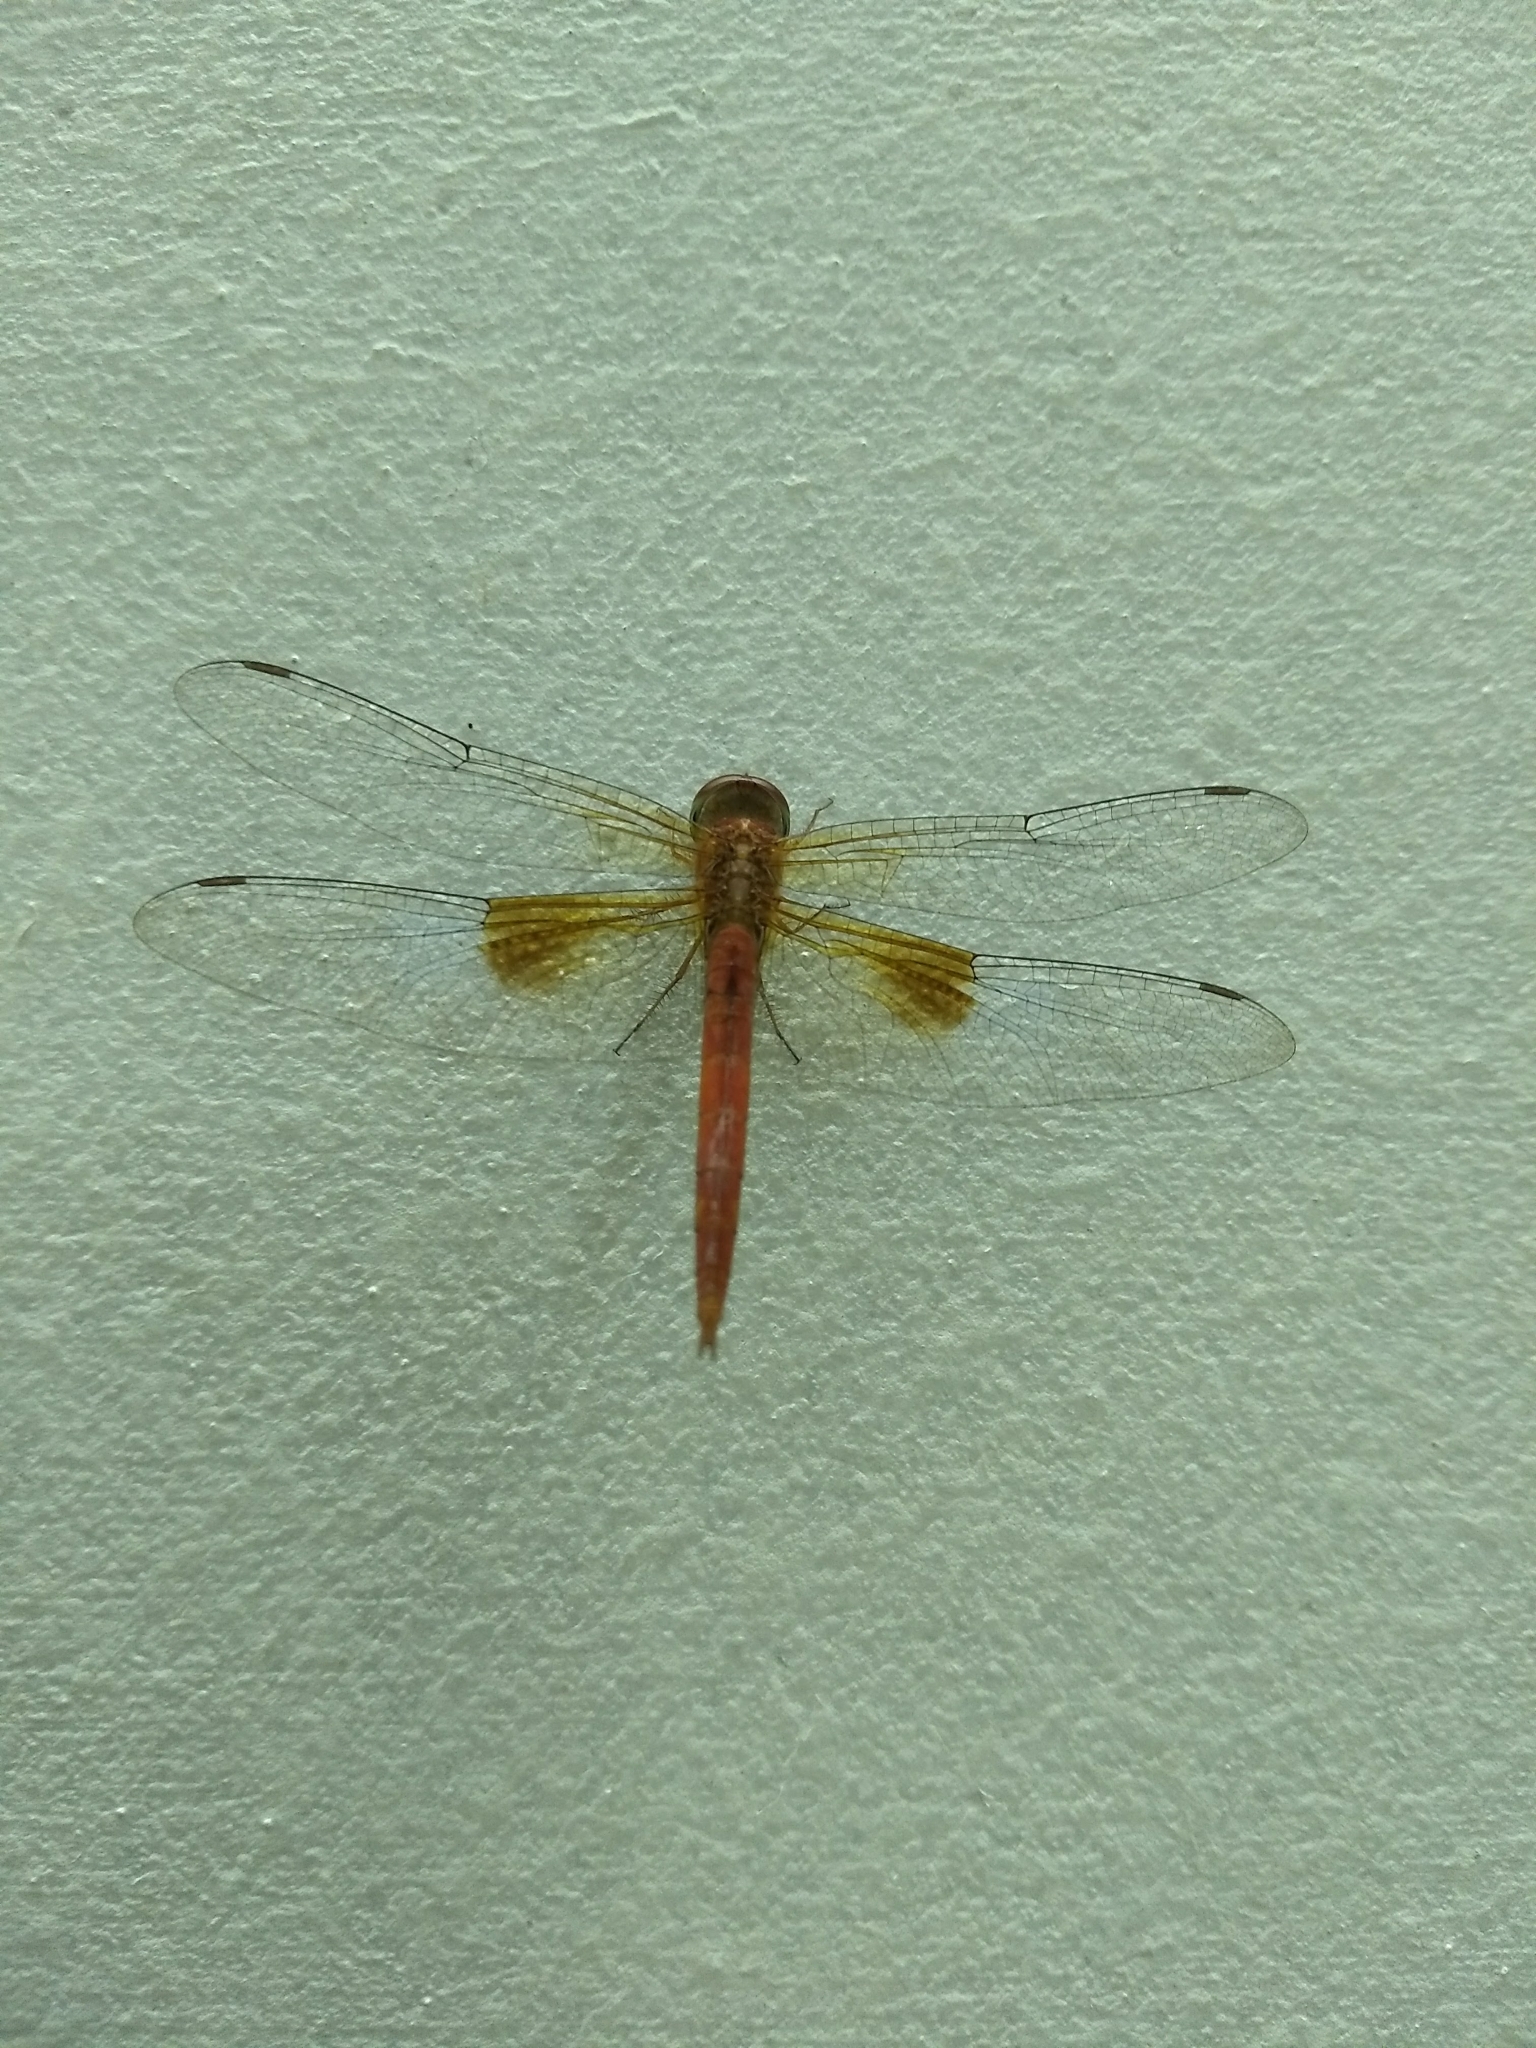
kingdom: Animalia
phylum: Arthropoda
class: Insecta
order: Odonata
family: Libellulidae
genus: Tholymis
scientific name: Tholymis tillarga
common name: Coral-tailed cloud wing
